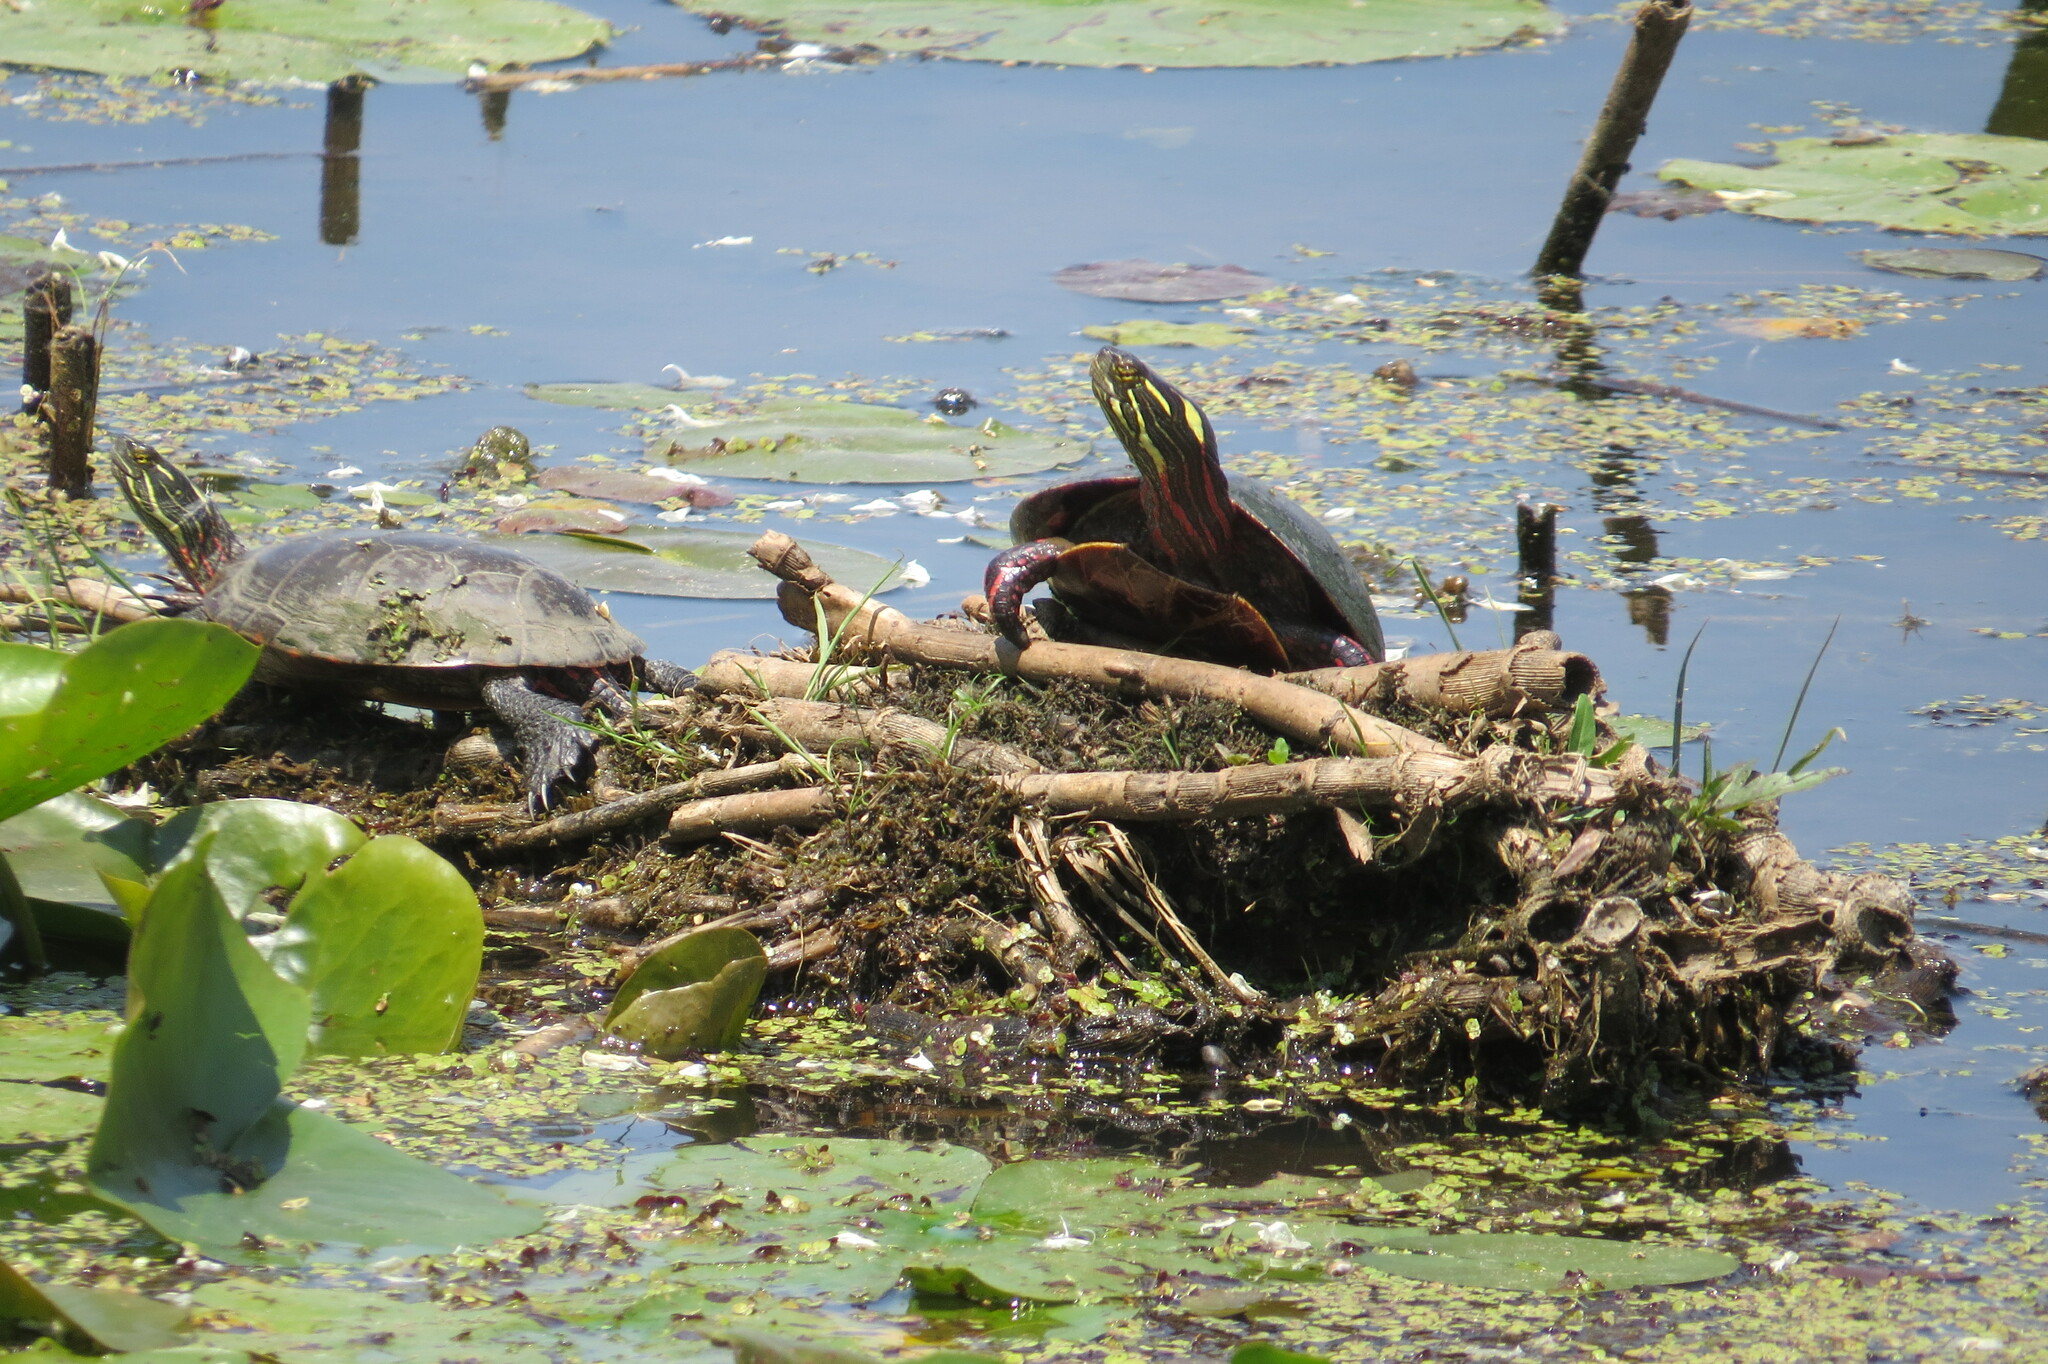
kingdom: Animalia
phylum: Chordata
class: Testudines
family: Emydidae
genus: Chrysemys
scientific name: Chrysemys picta
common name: Painted turtle
